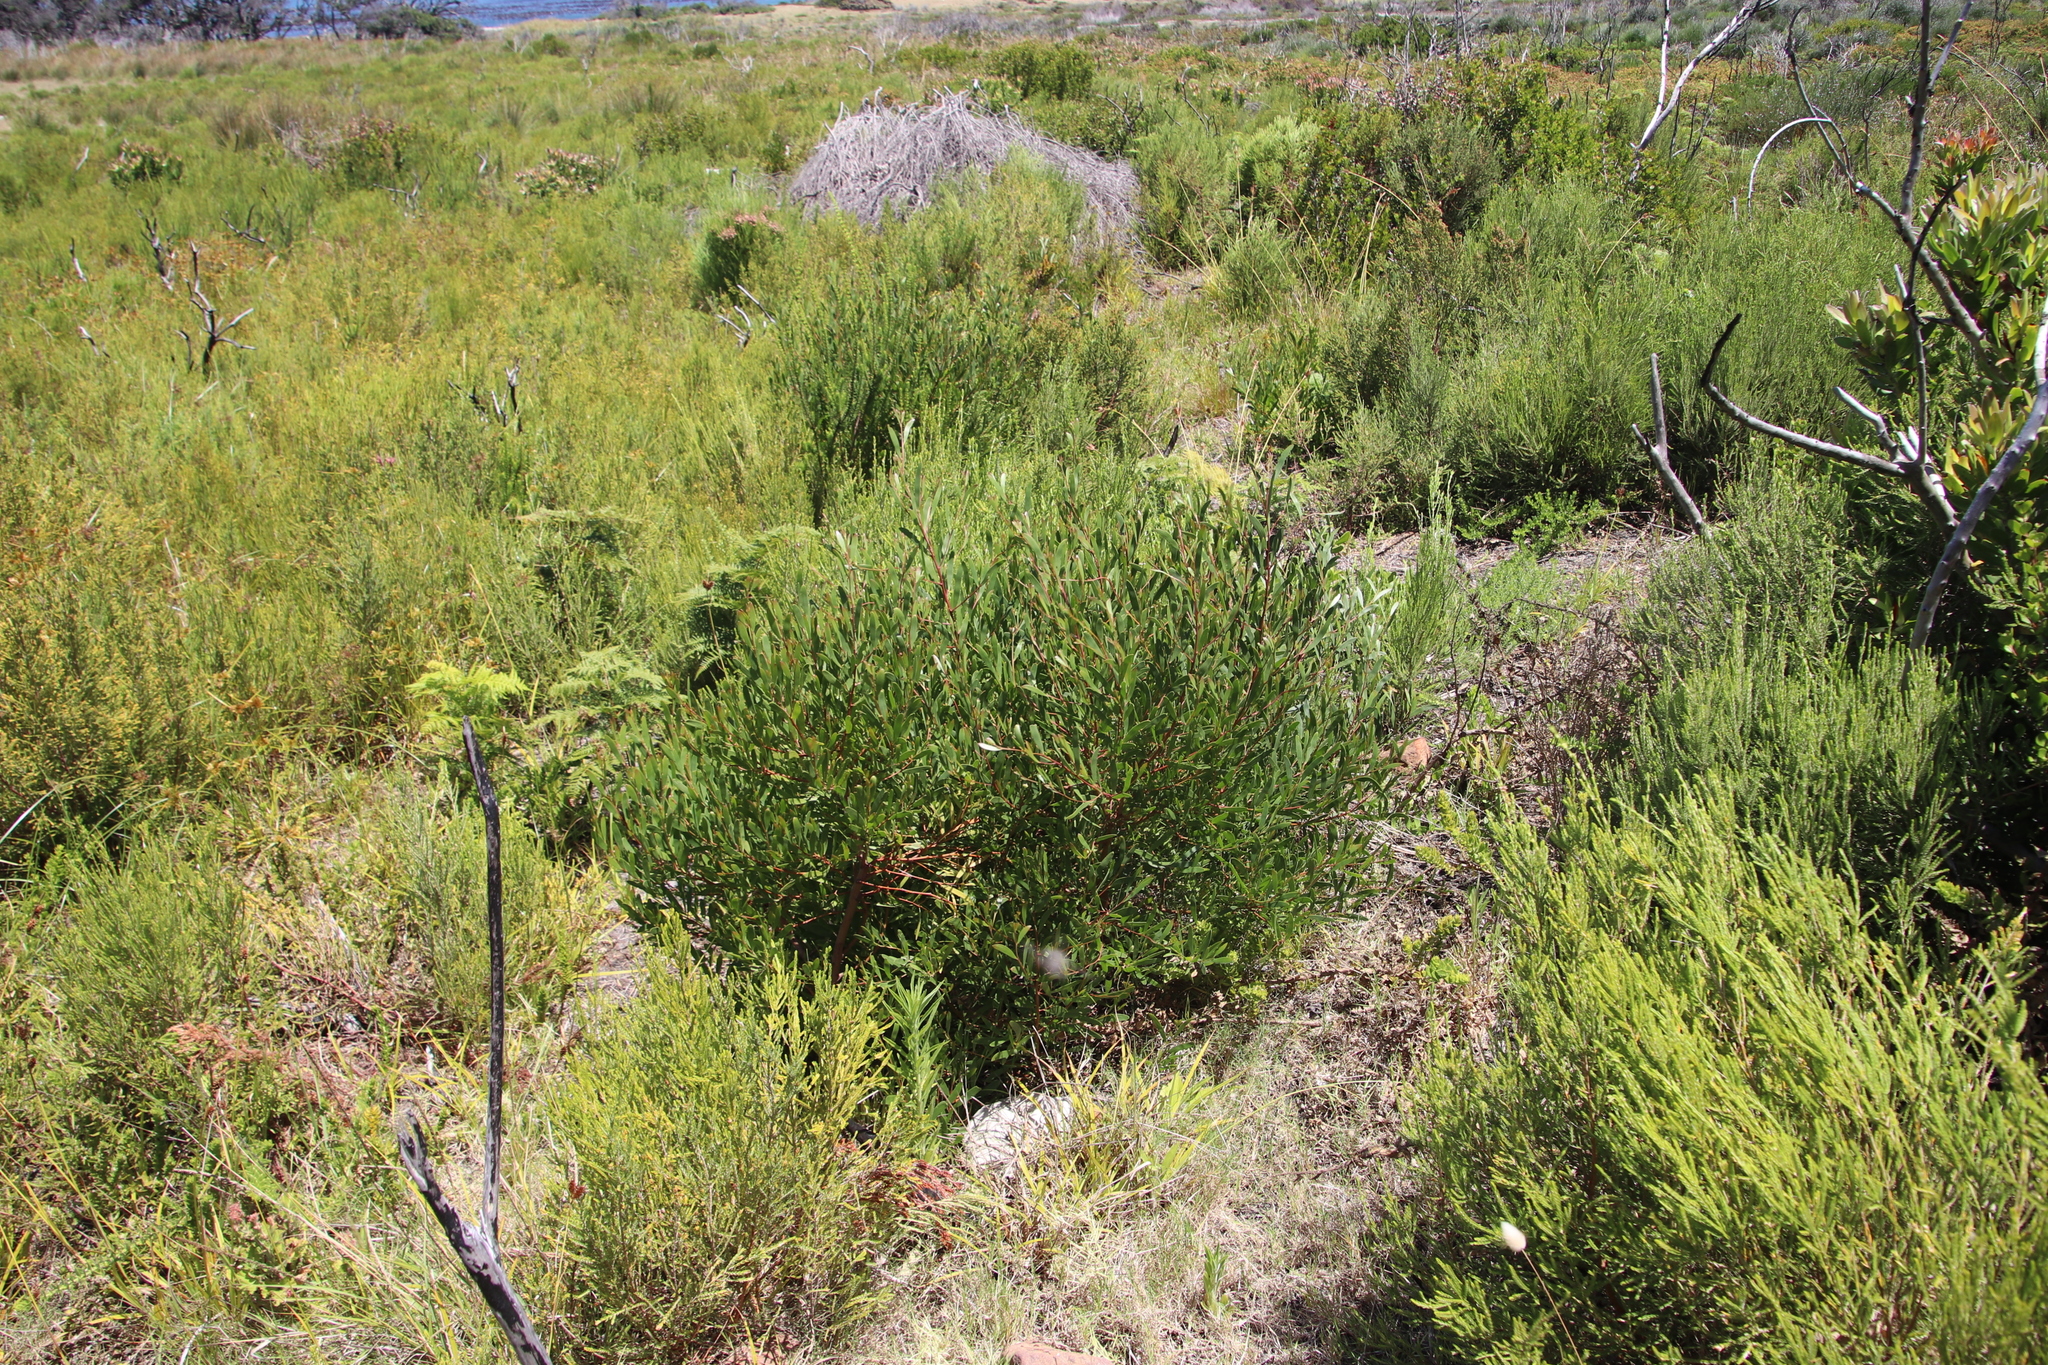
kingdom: Plantae
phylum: Tracheophyta
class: Magnoliopsida
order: Fabales
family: Fabaceae
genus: Acacia
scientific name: Acacia cyclops
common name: Coastal wattle
